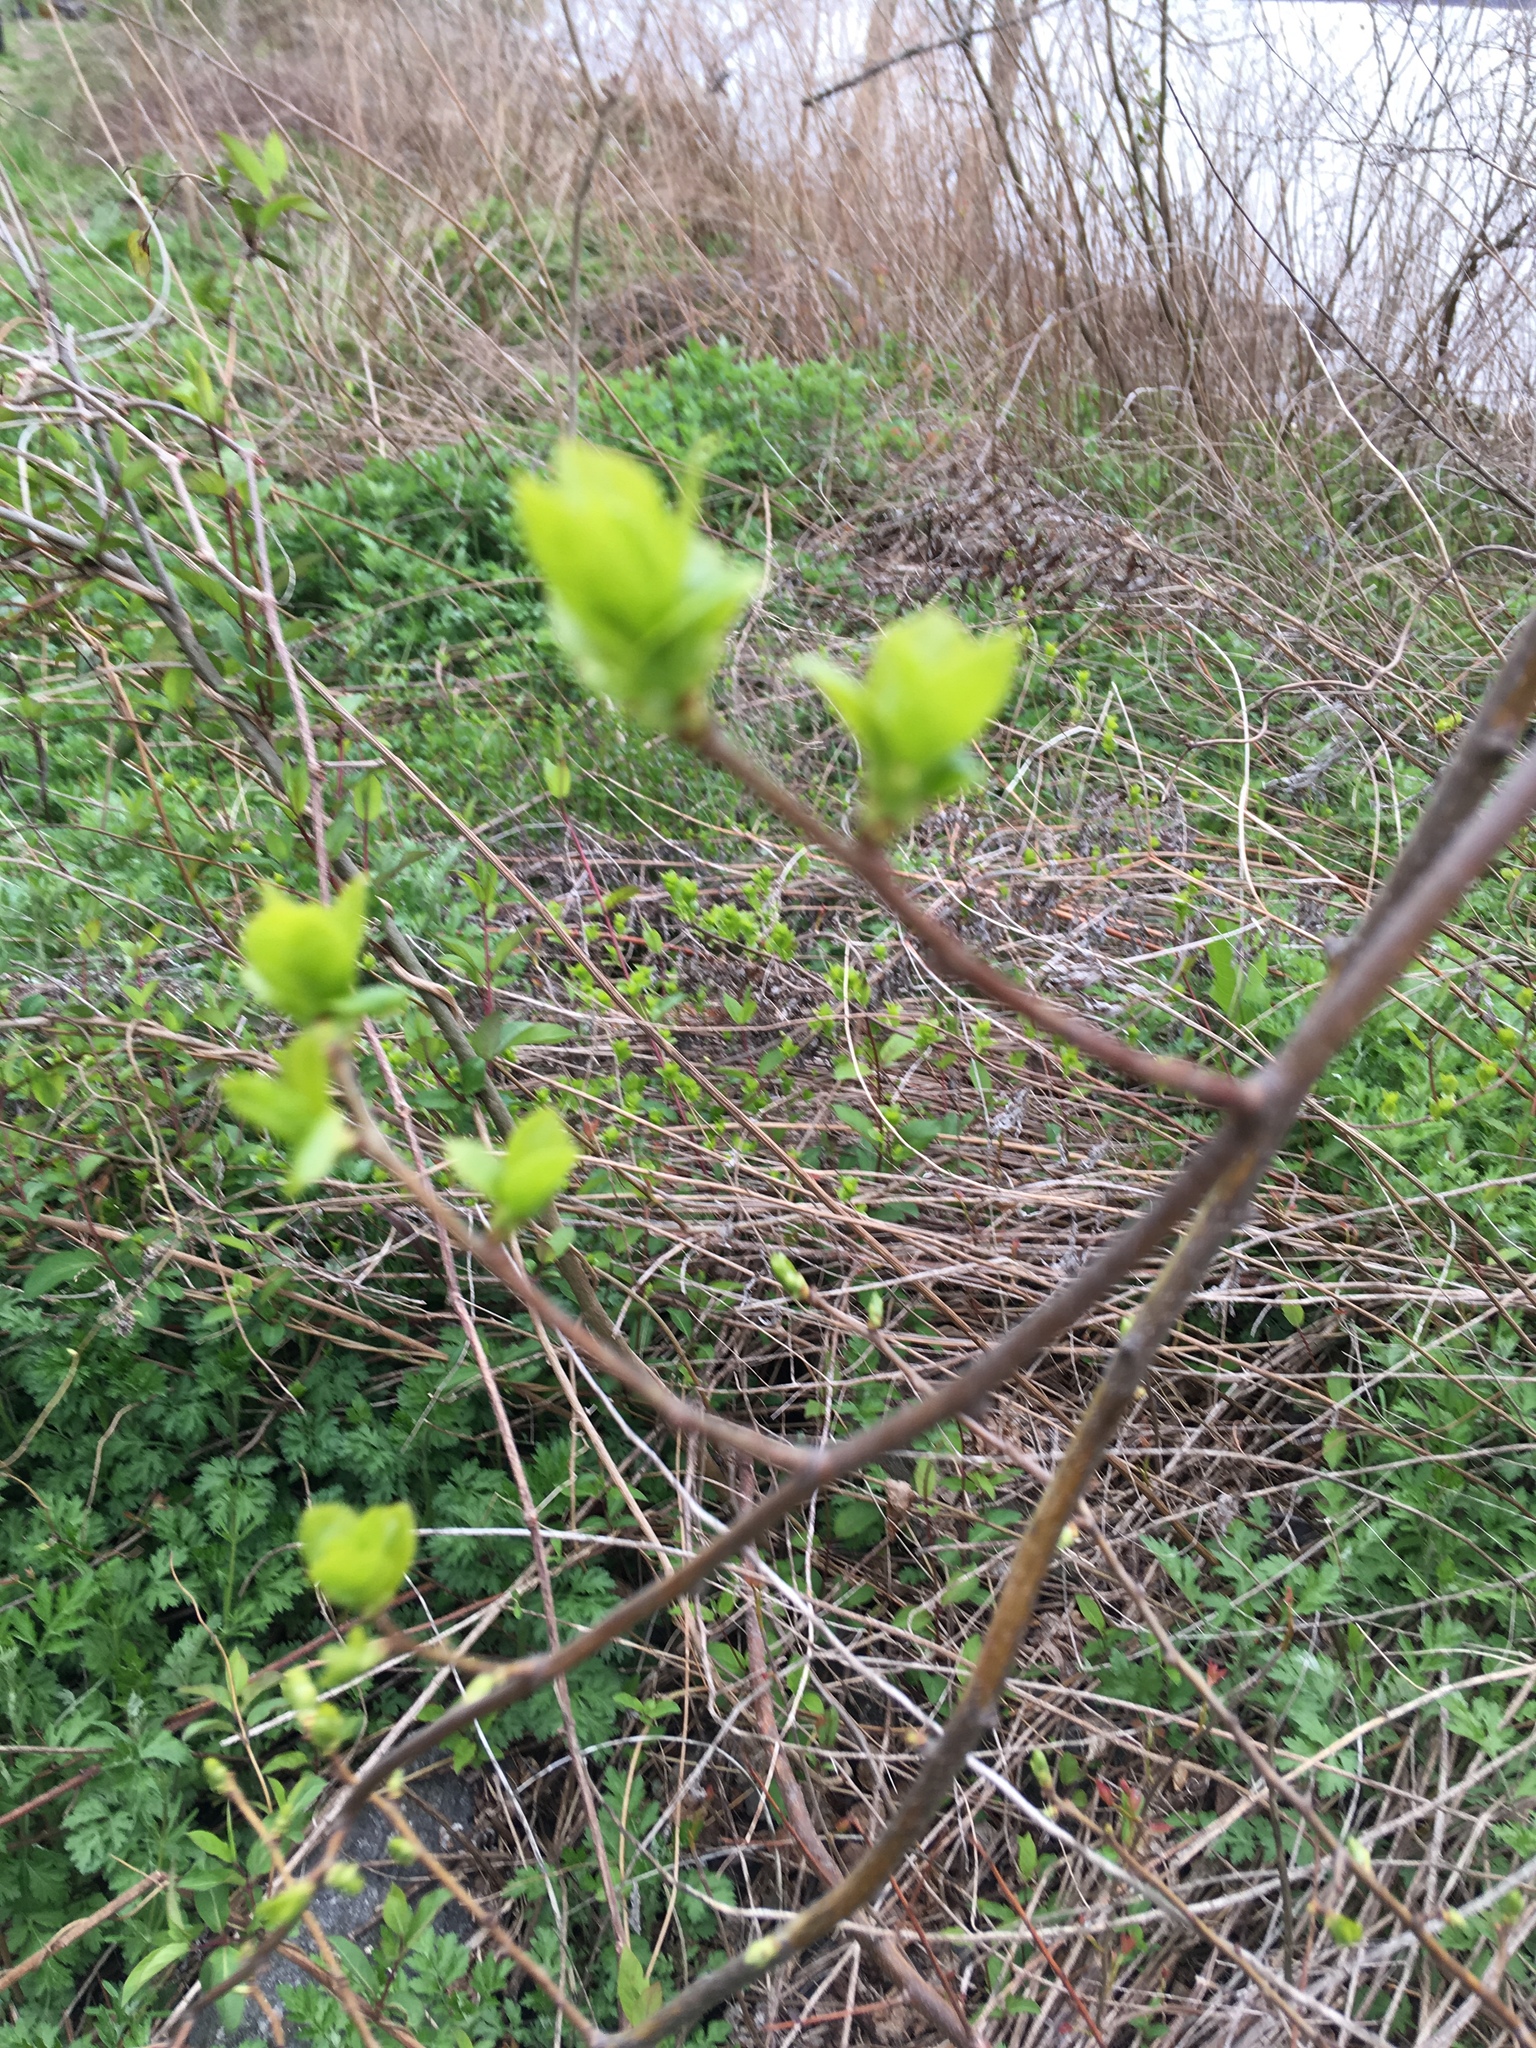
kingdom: Plantae
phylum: Tracheophyta
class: Magnoliopsida
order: Celastrales
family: Celastraceae
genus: Celastrus
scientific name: Celastrus orbiculatus
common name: Oriental bittersweet
